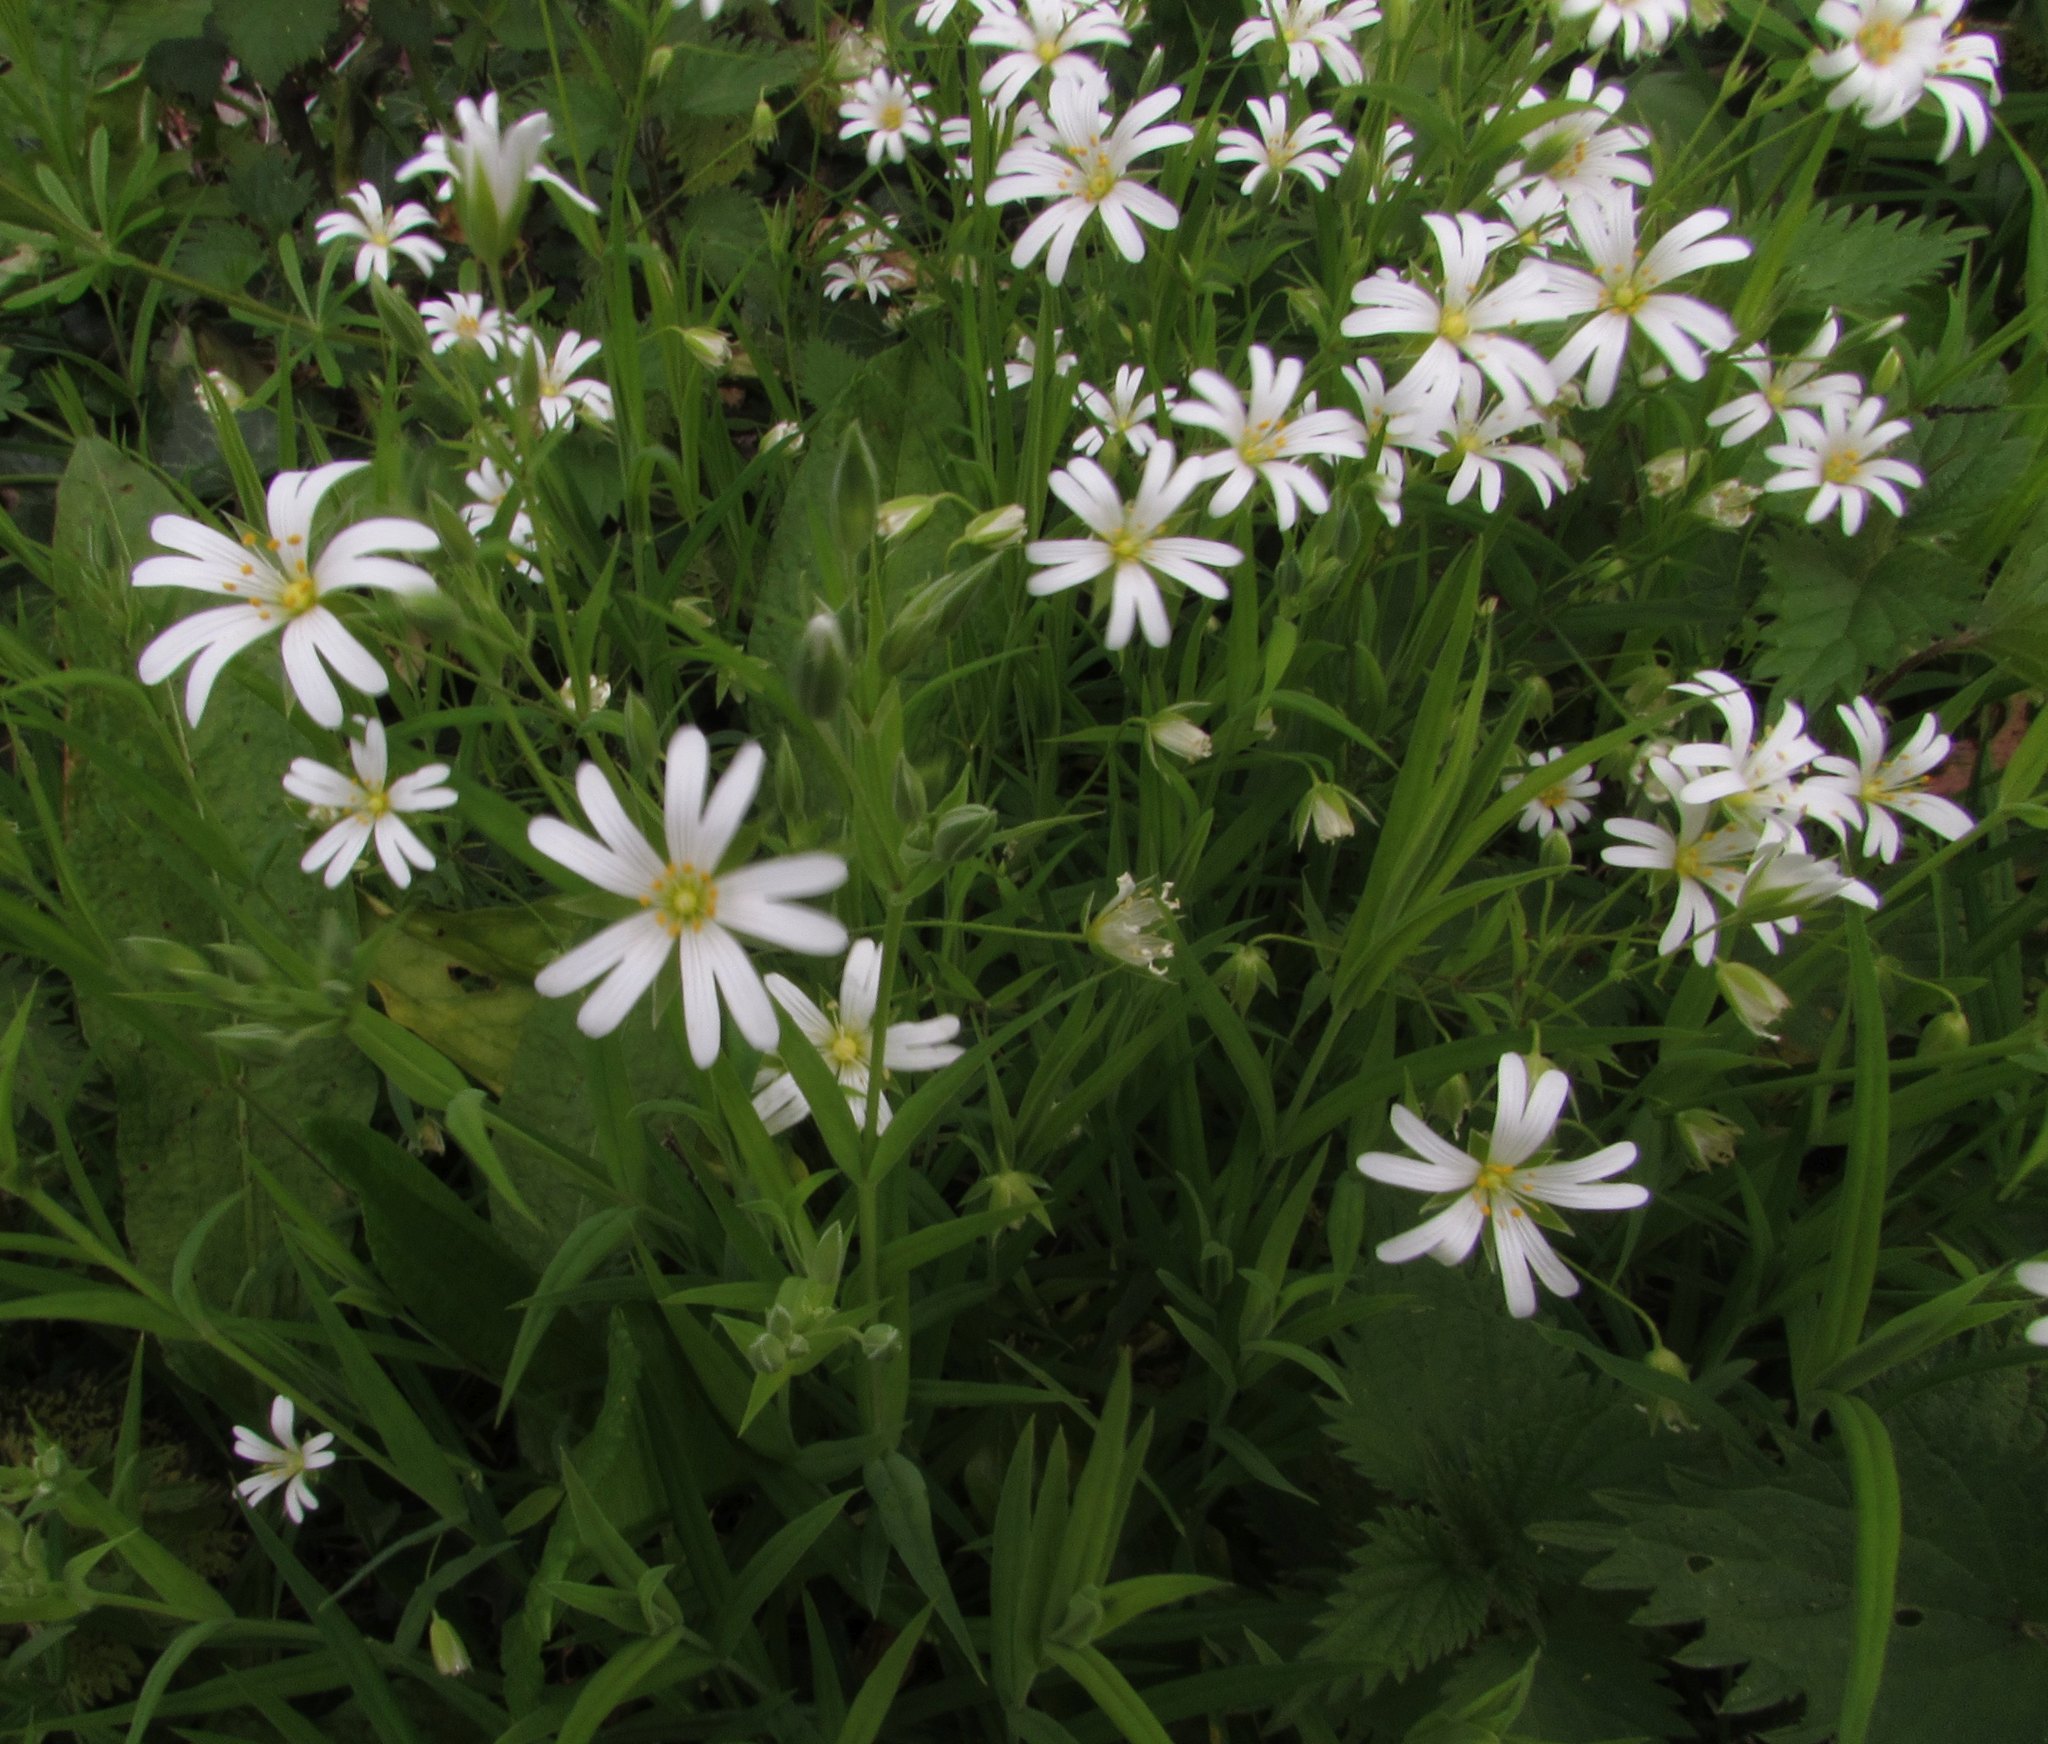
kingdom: Plantae
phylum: Tracheophyta
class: Magnoliopsida
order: Caryophyllales
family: Caryophyllaceae
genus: Rabelera
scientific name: Rabelera holostea
